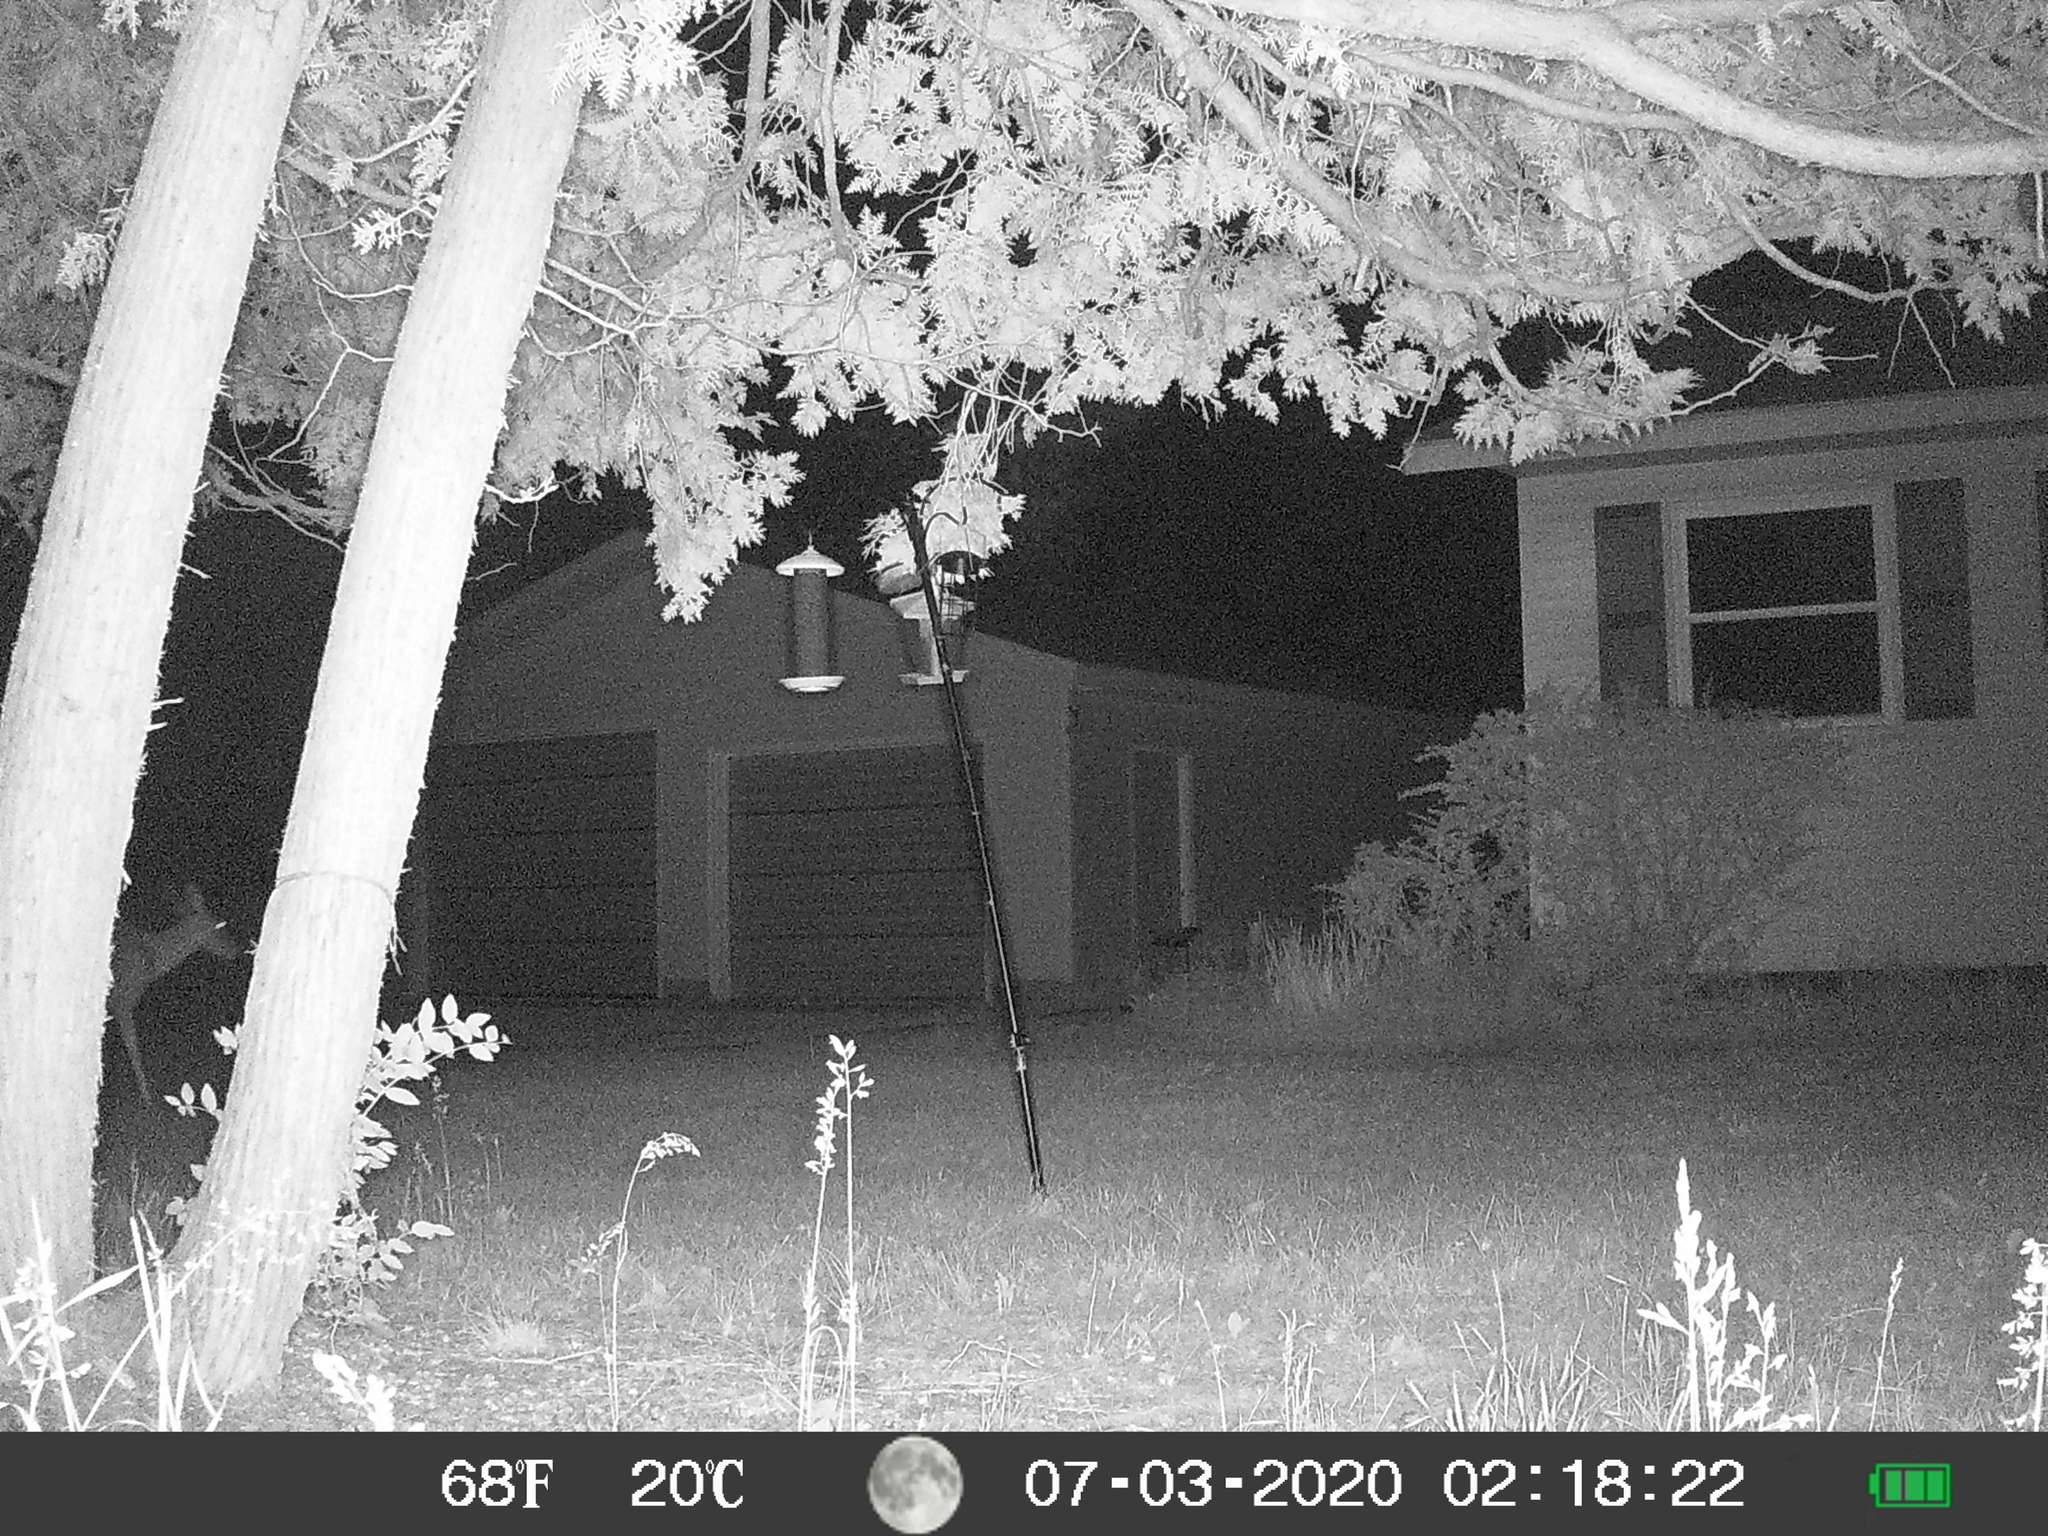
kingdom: Animalia
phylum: Chordata
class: Mammalia
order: Artiodactyla
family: Cervidae
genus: Odocoileus
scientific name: Odocoileus virginianus
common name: White-tailed deer
